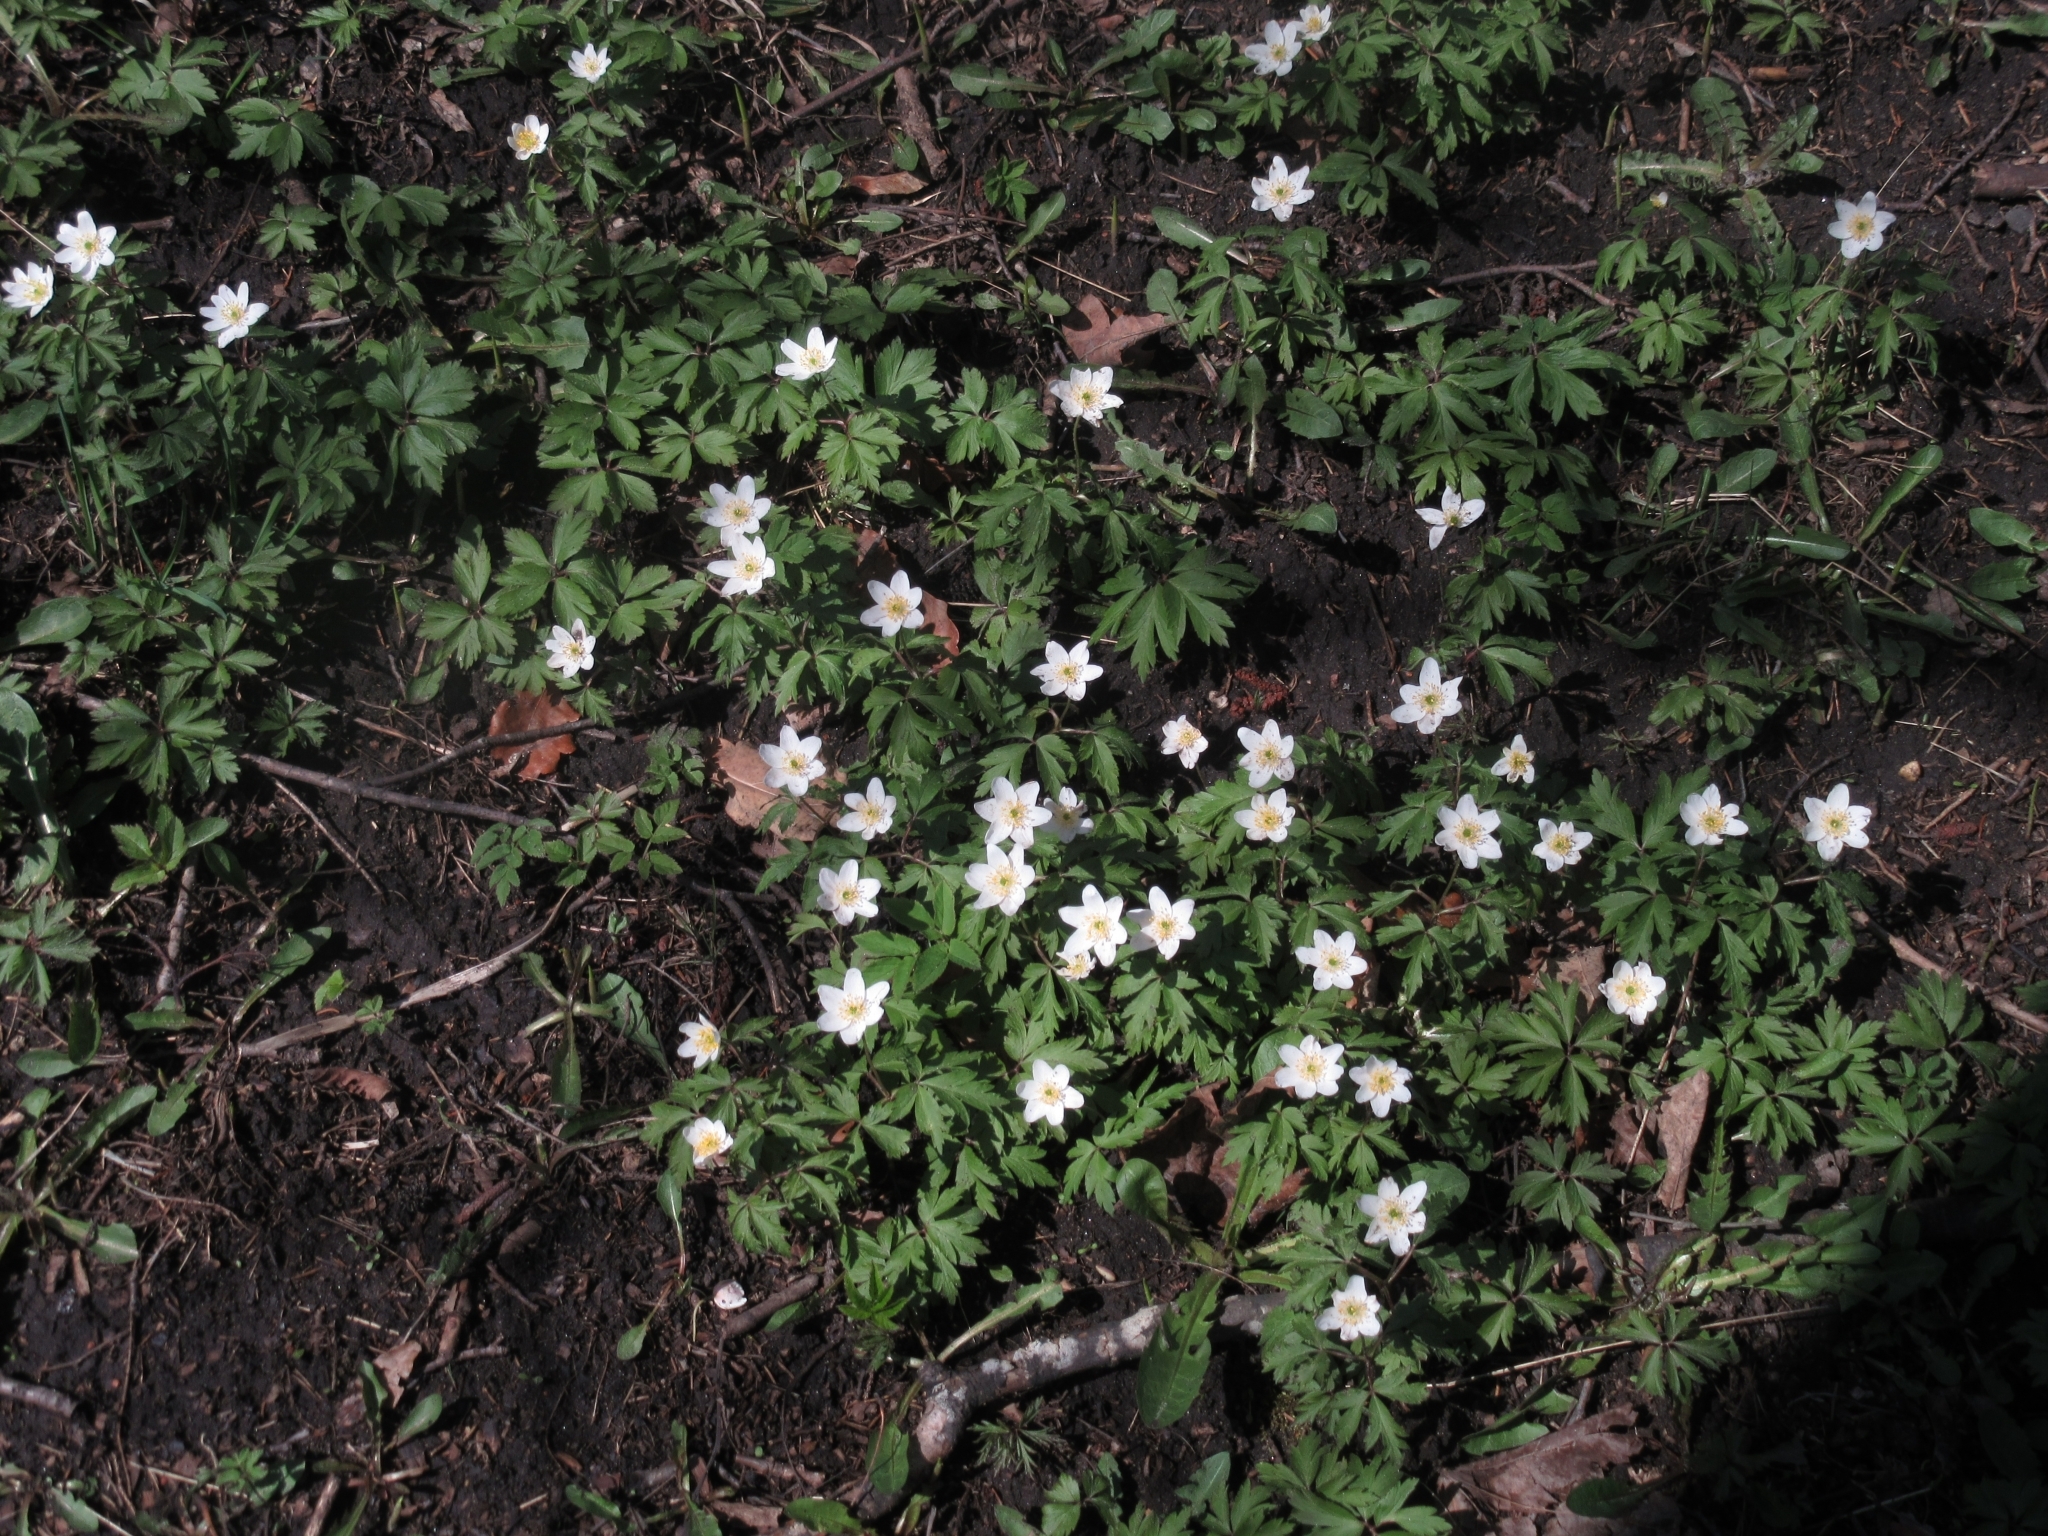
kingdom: Plantae
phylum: Tracheophyta
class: Magnoliopsida
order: Ranunculales
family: Ranunculaceae
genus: Anemone
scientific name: Anemone nemorosa
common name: Wood anemone
